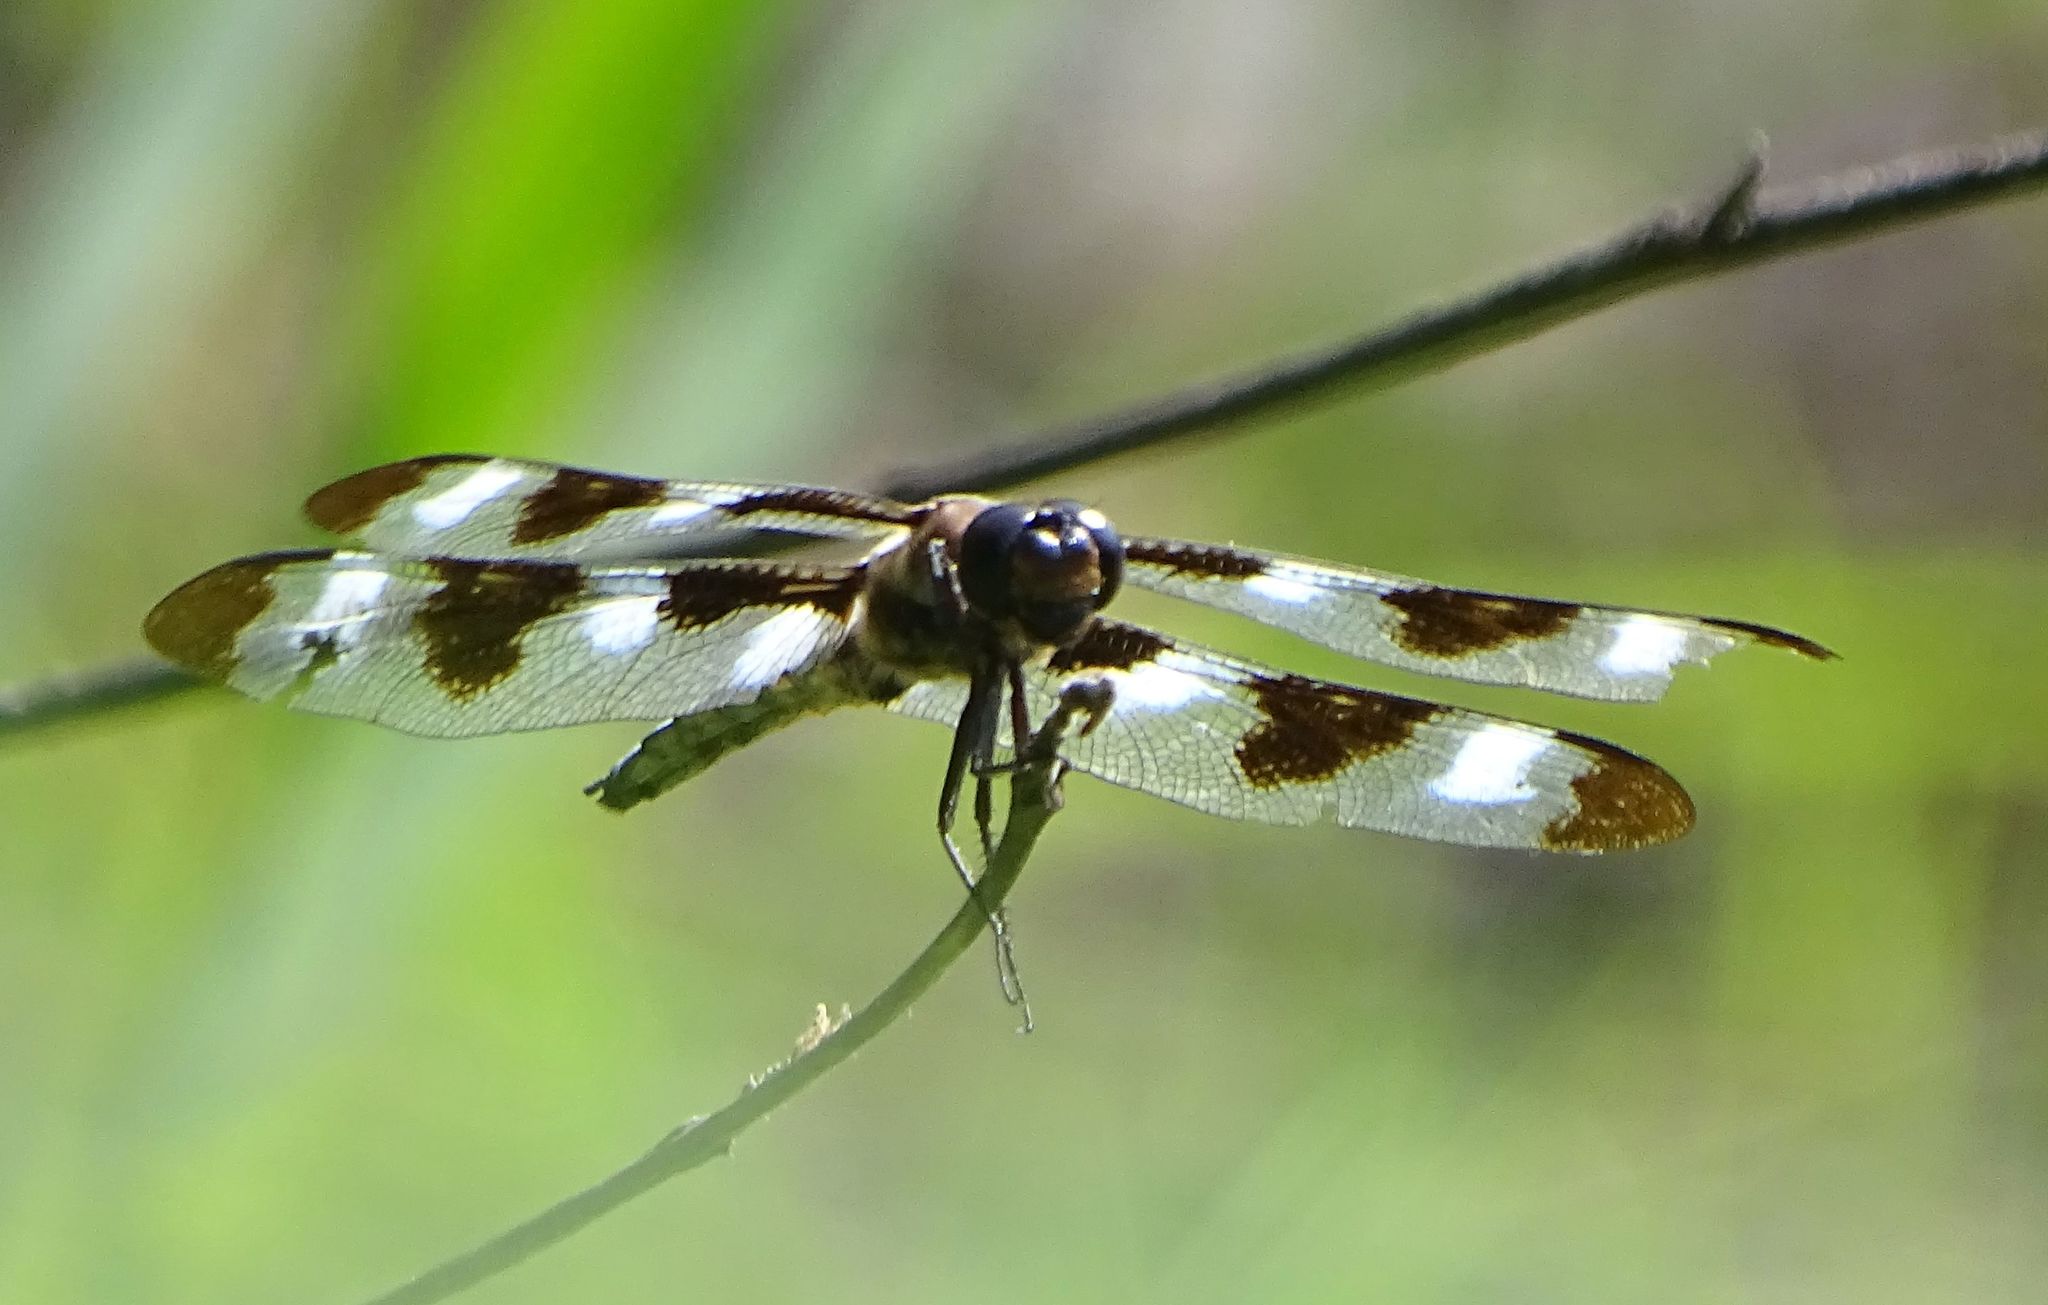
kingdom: Animalia
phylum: Arthropoda
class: Insecta
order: Odonata
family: Libellulidae
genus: Libellula
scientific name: Libellula pulchella
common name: Twelve-spotted skimmer
